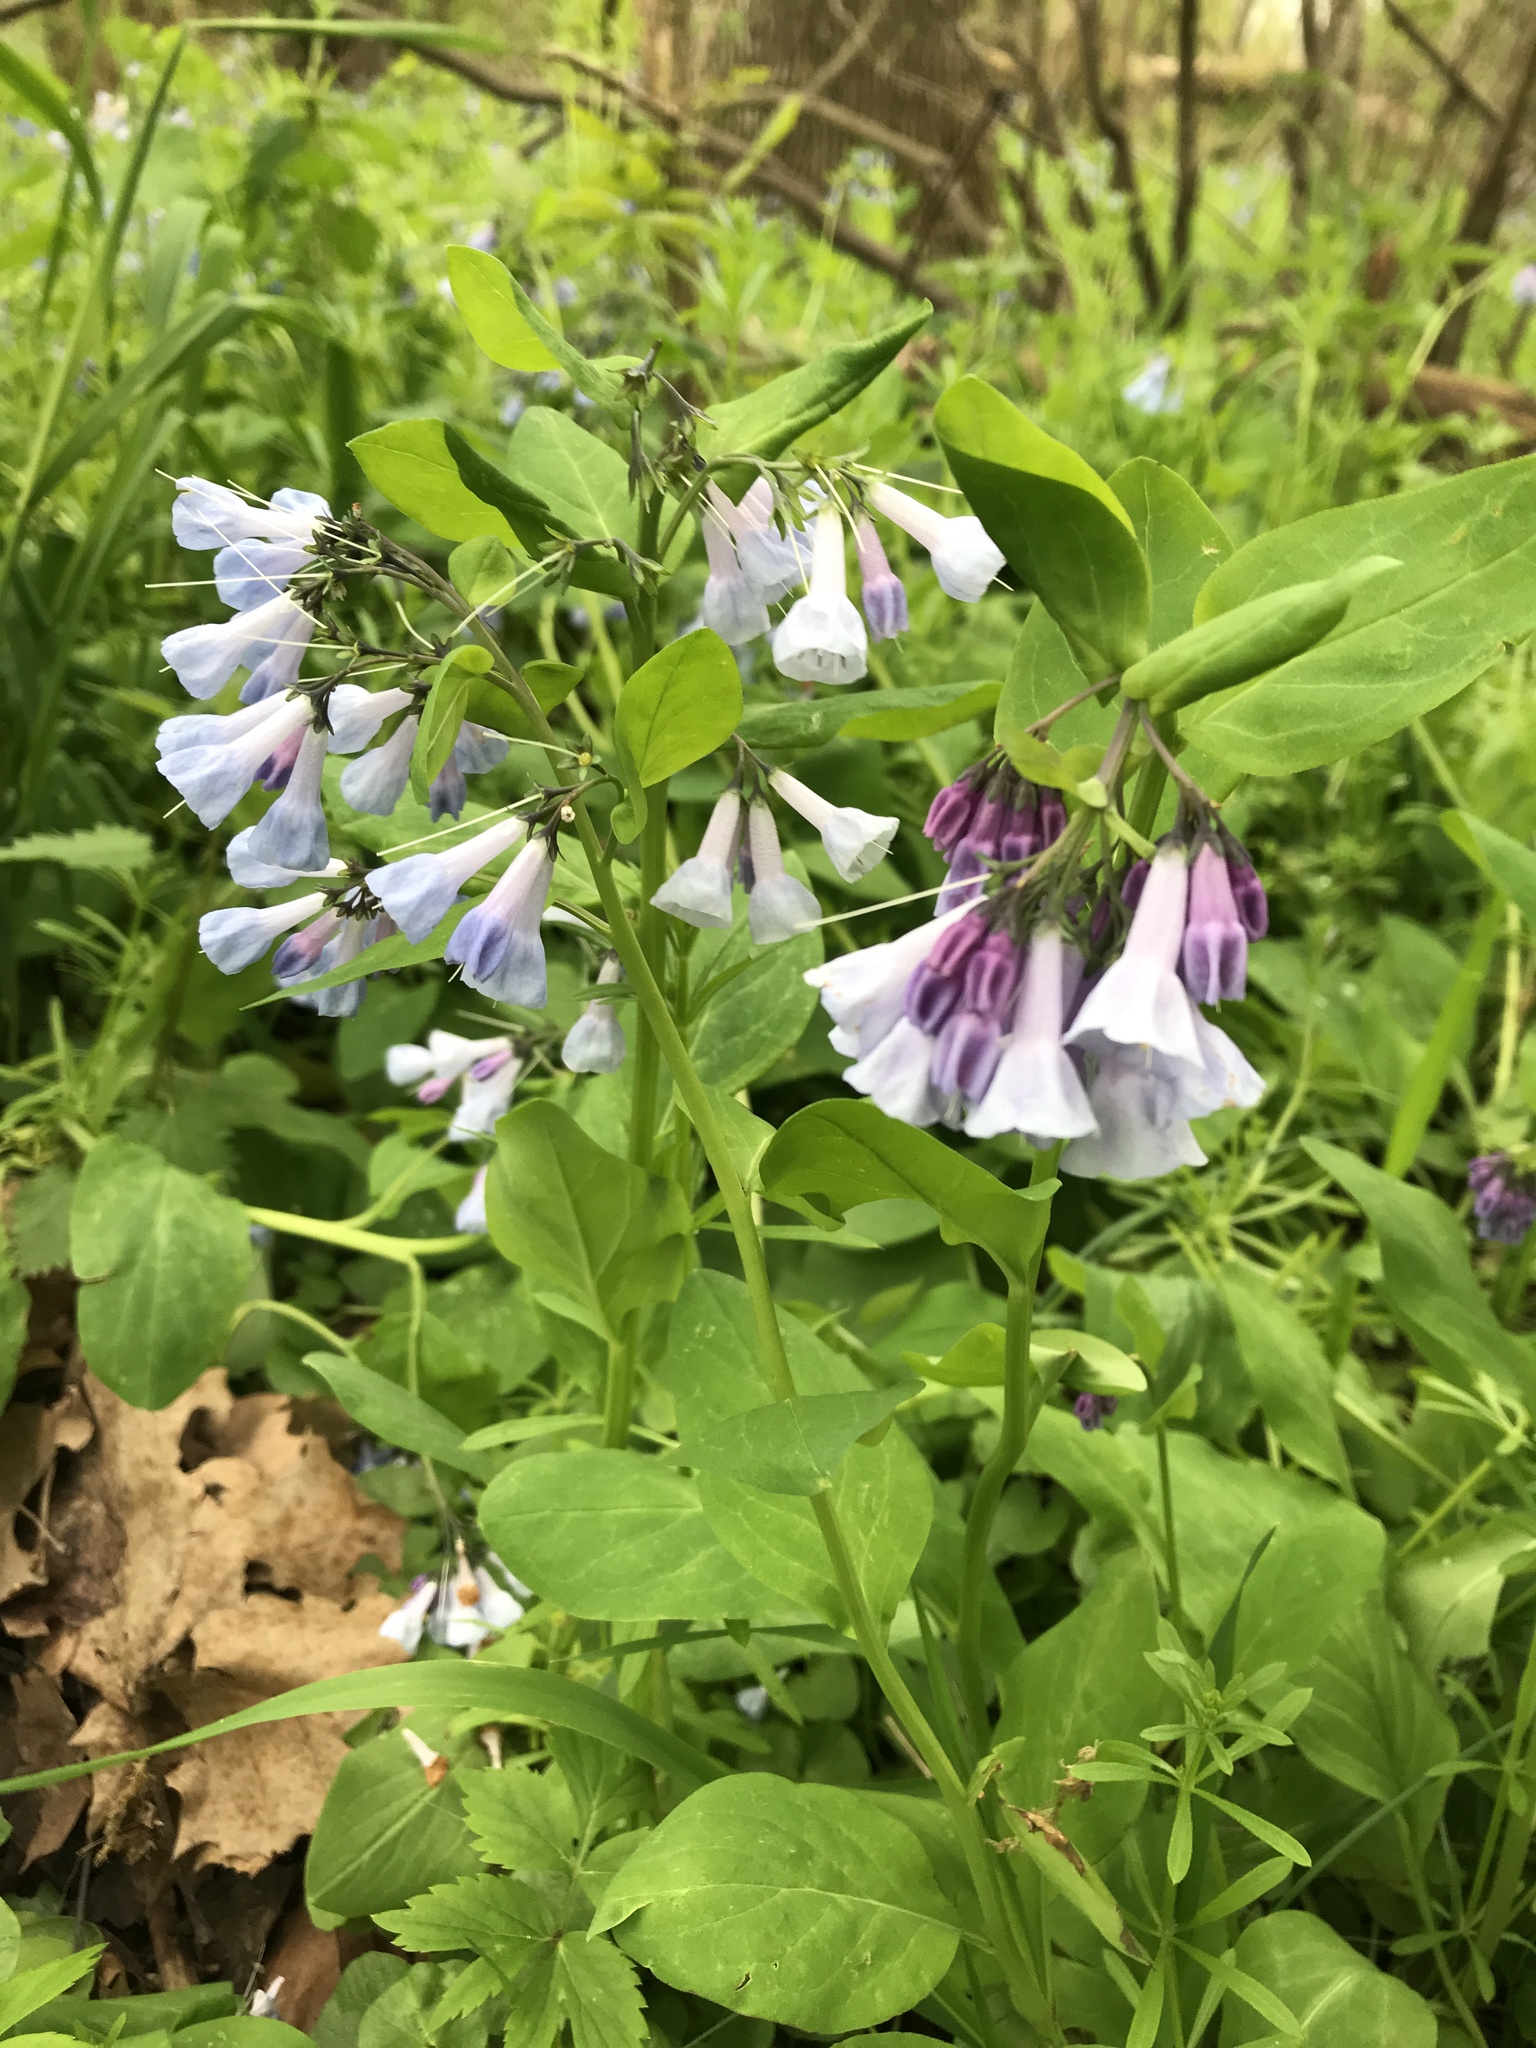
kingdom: Plantae
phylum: Tracheophyta
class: Magnoliopsida
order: Boraginales
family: Boraginaceae
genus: Mertensia
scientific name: Mertensia virginica
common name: Virginia bluebells
